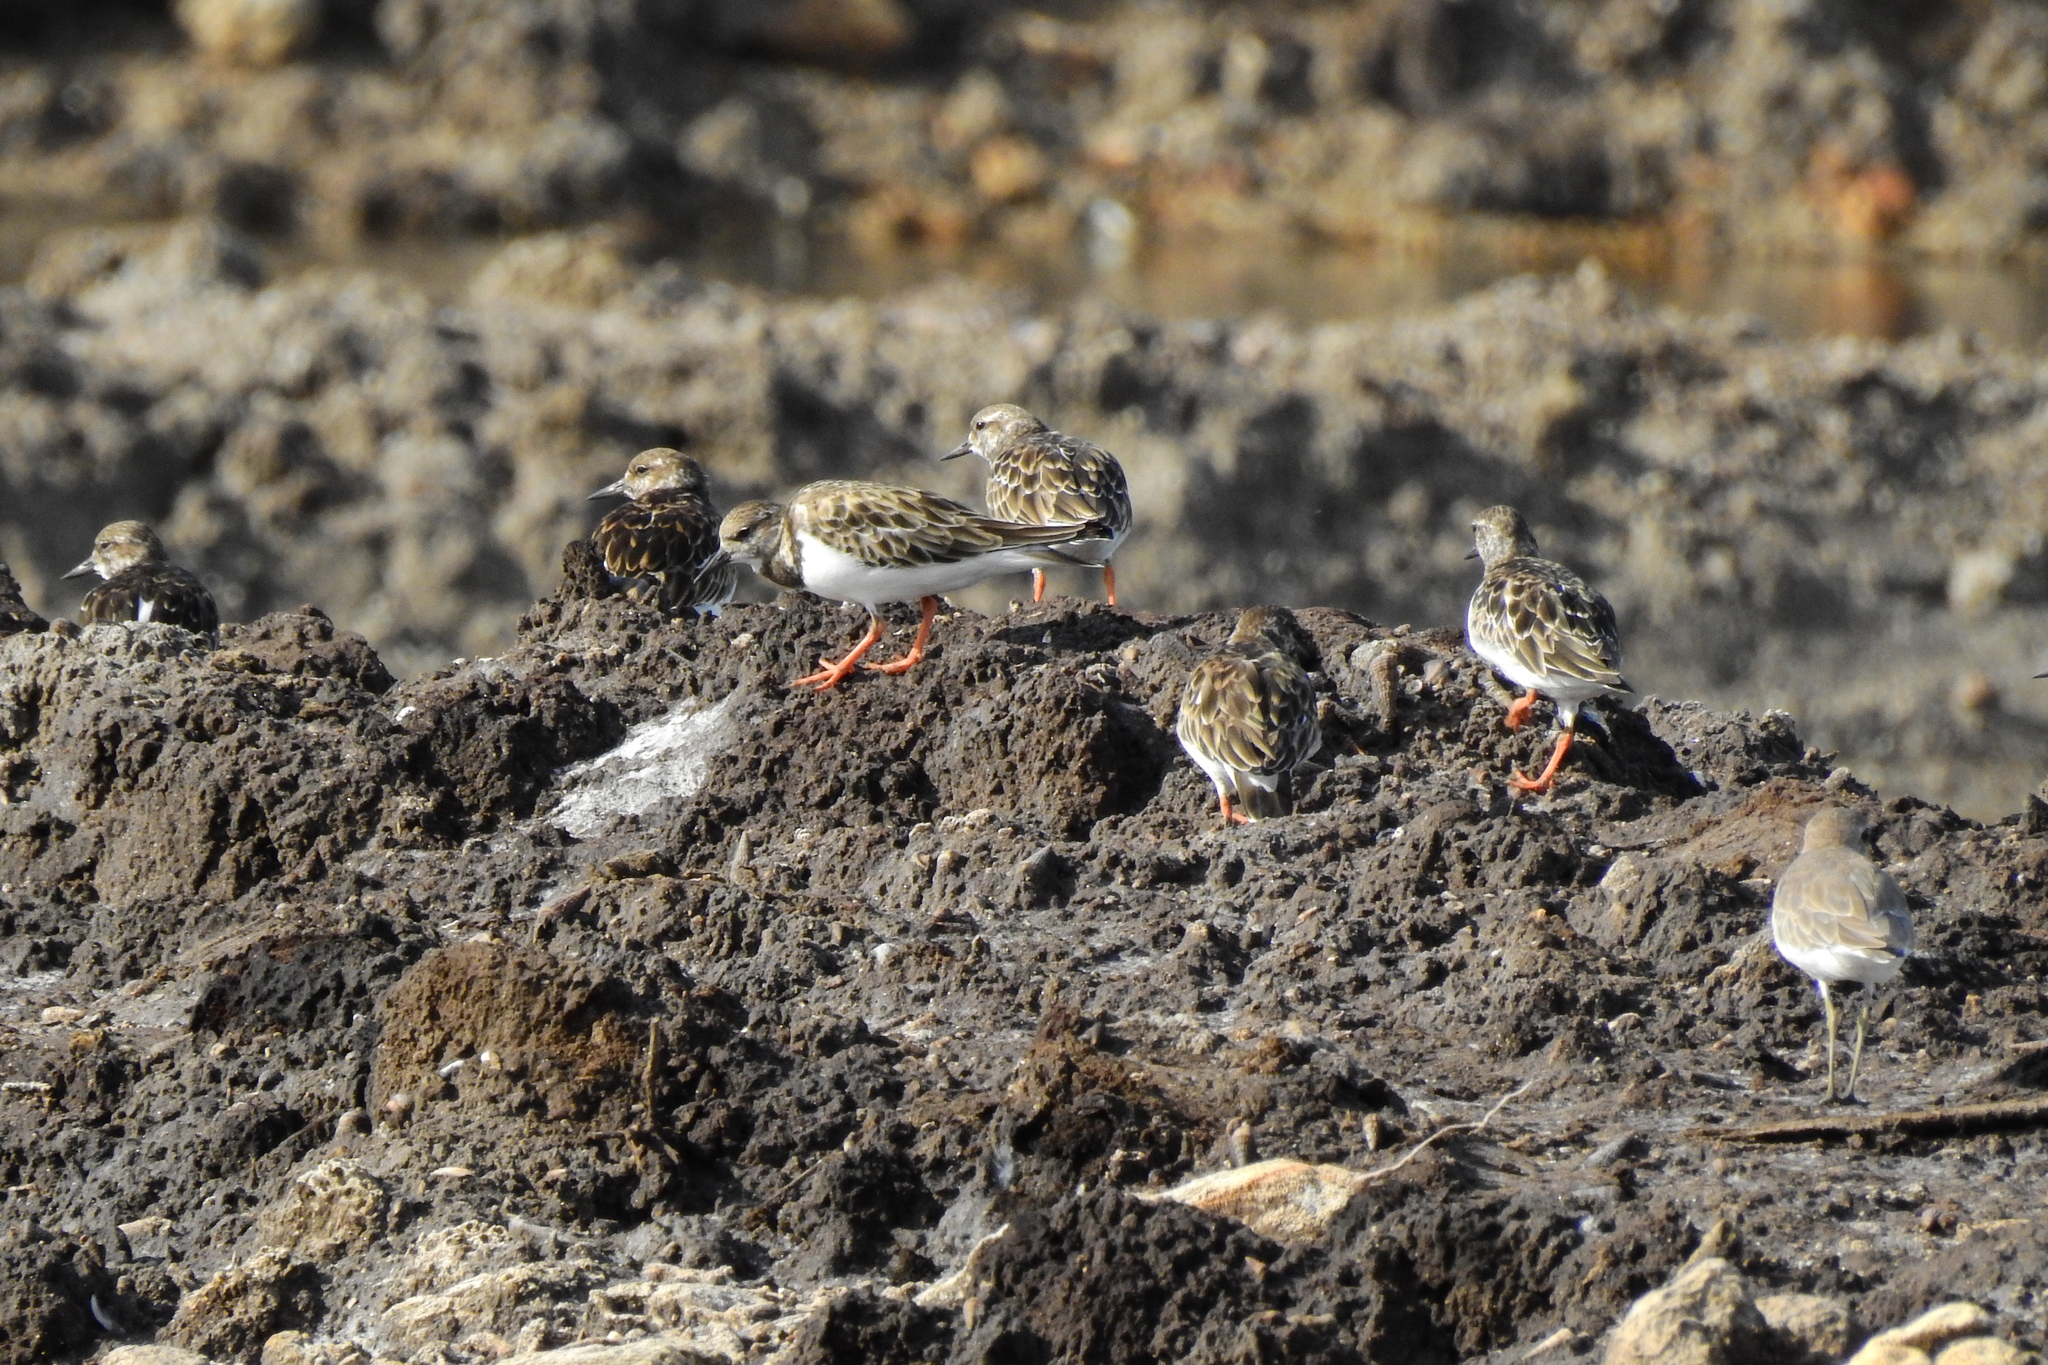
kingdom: Animalia
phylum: Chordata
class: Aves
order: Charadriiformes
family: Scolopacidae
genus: Arenaria
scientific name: Arenaria interpres
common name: Ruddy turnstone
